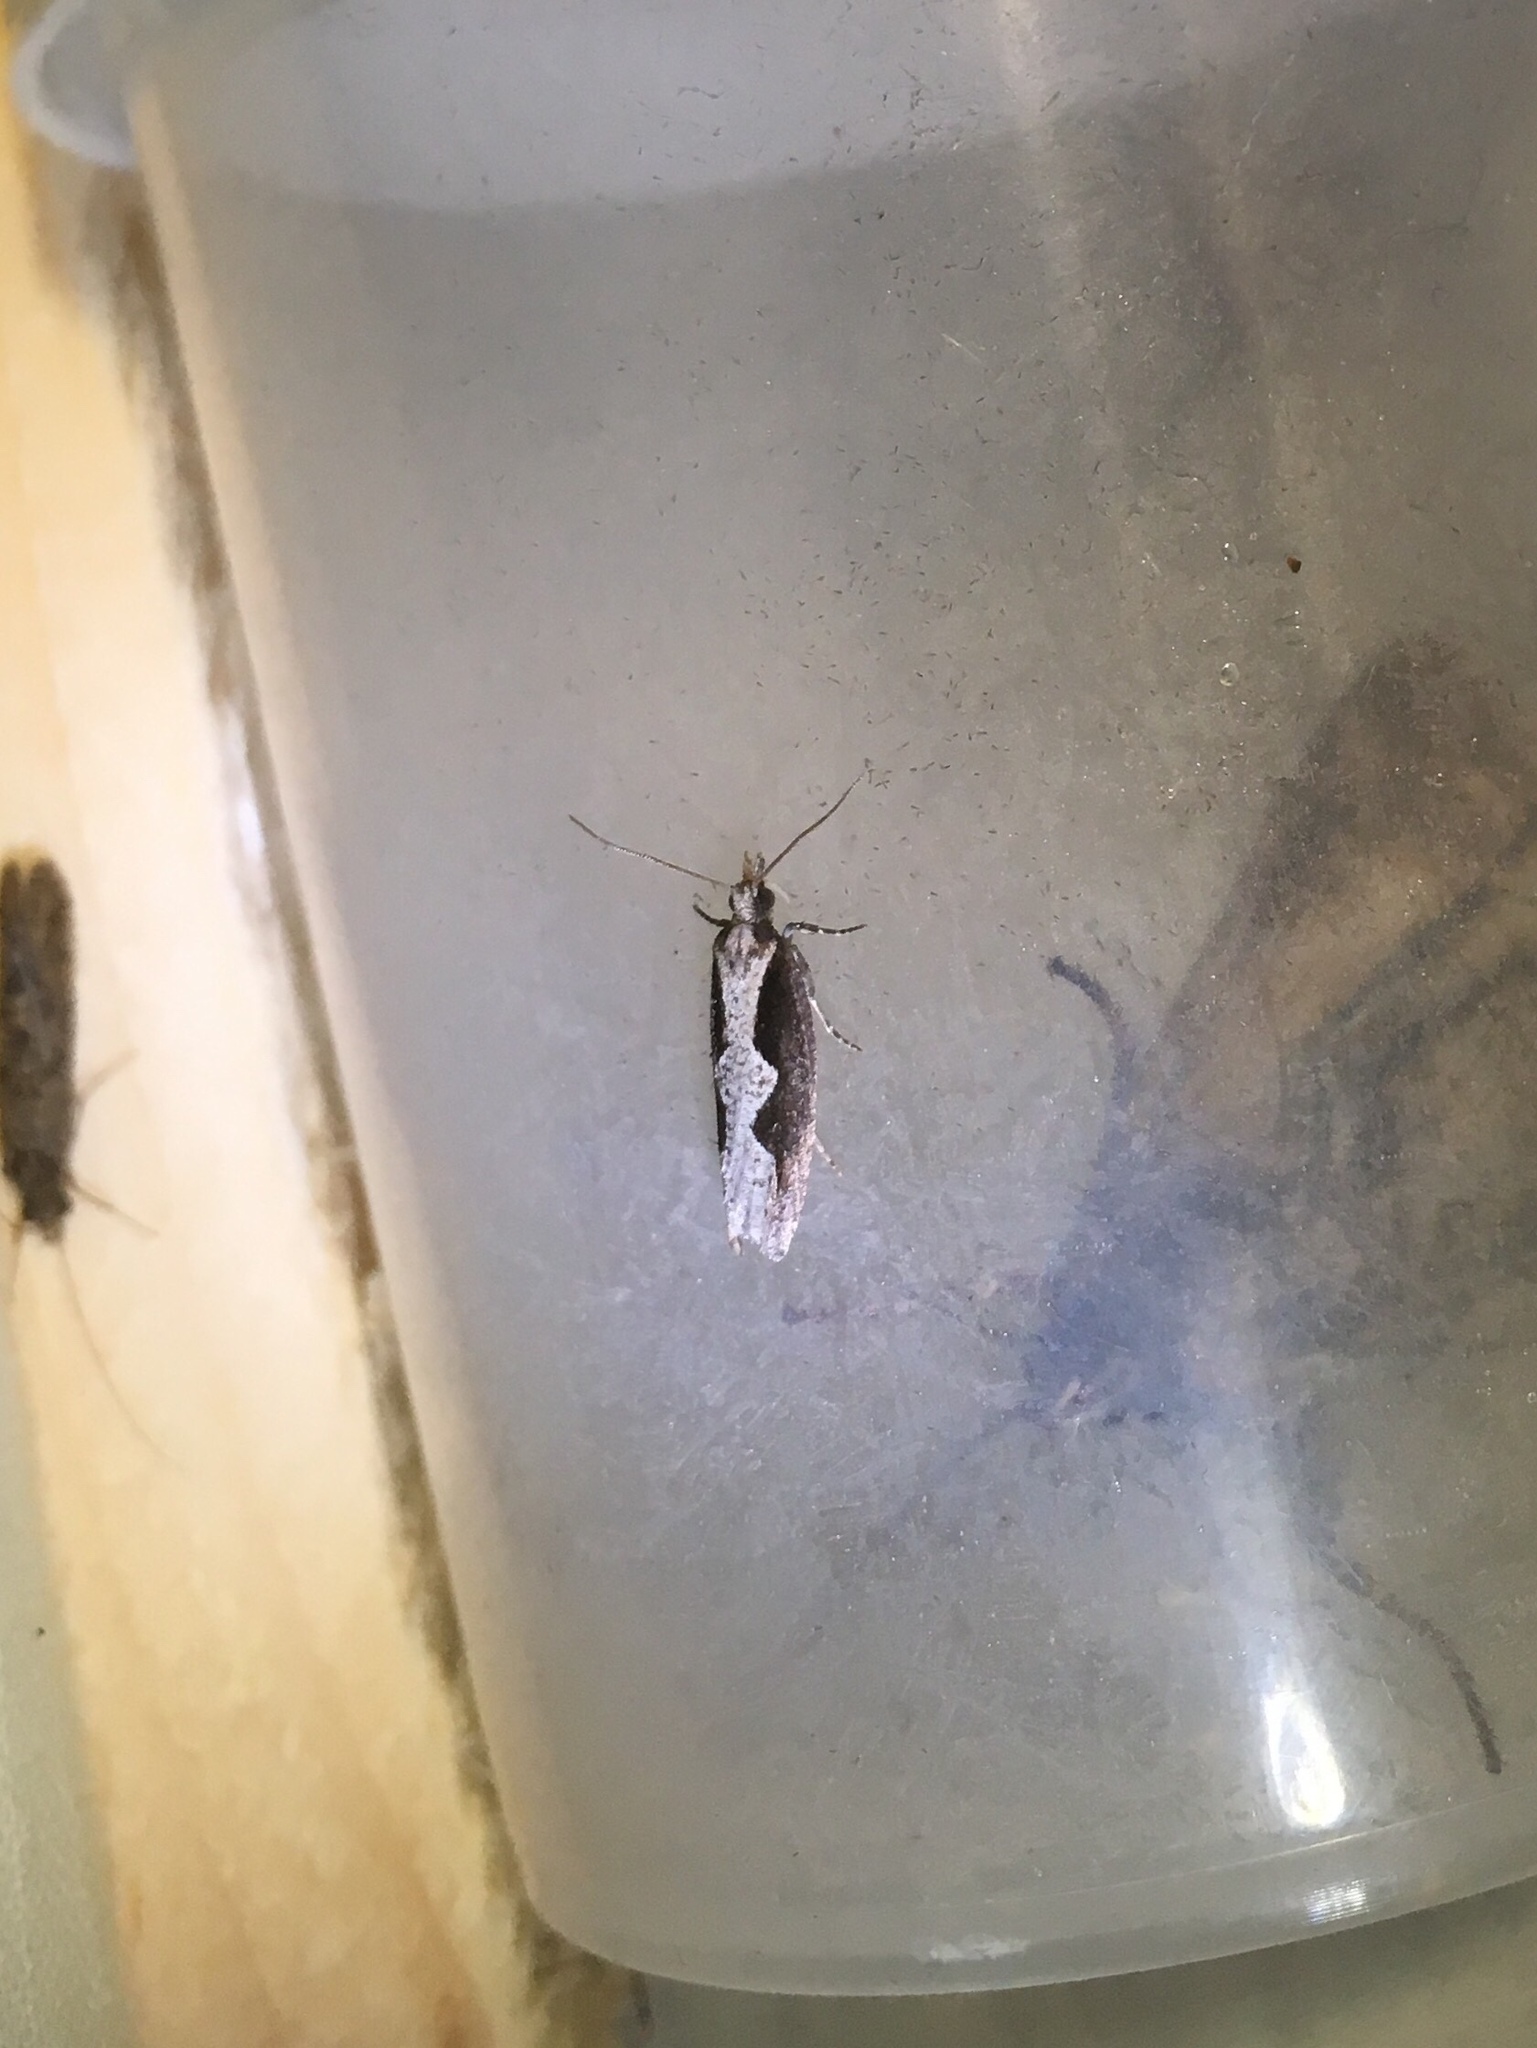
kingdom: Animalia
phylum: Arthropoda
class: Insecta
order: Lepidoptera
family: Tortricidae
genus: Epinotia
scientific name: Epinotia lindana
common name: Diamondback epinotia moth
